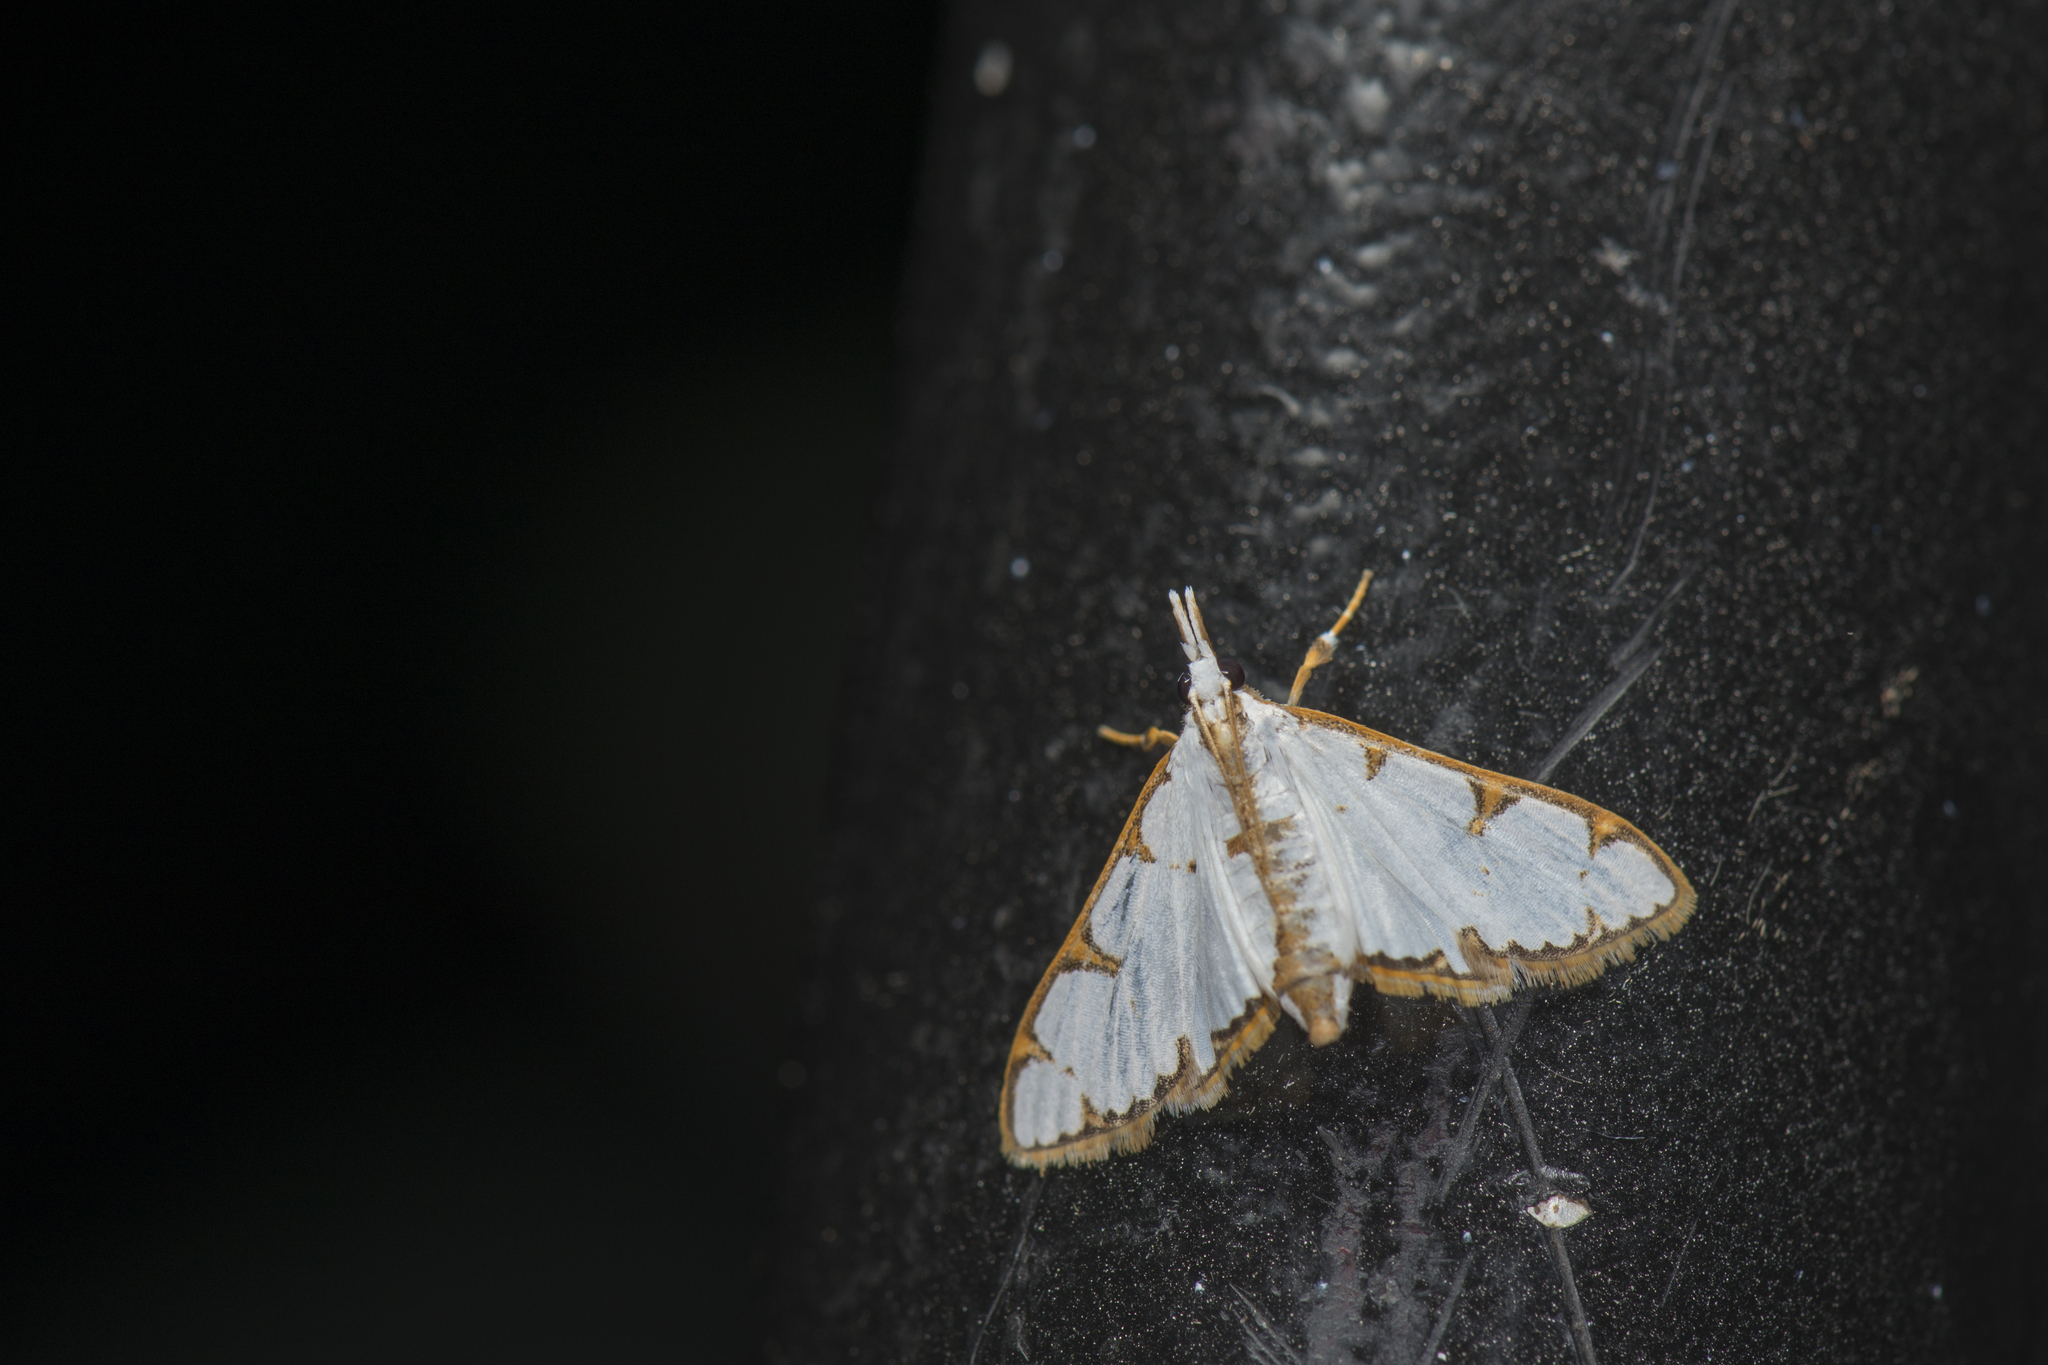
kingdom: Animalia
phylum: Arthropoda
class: Insecta
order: Lepidoptera
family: Crambidae
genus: Cirrhochrista
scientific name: Cirrhochrista spinuella
